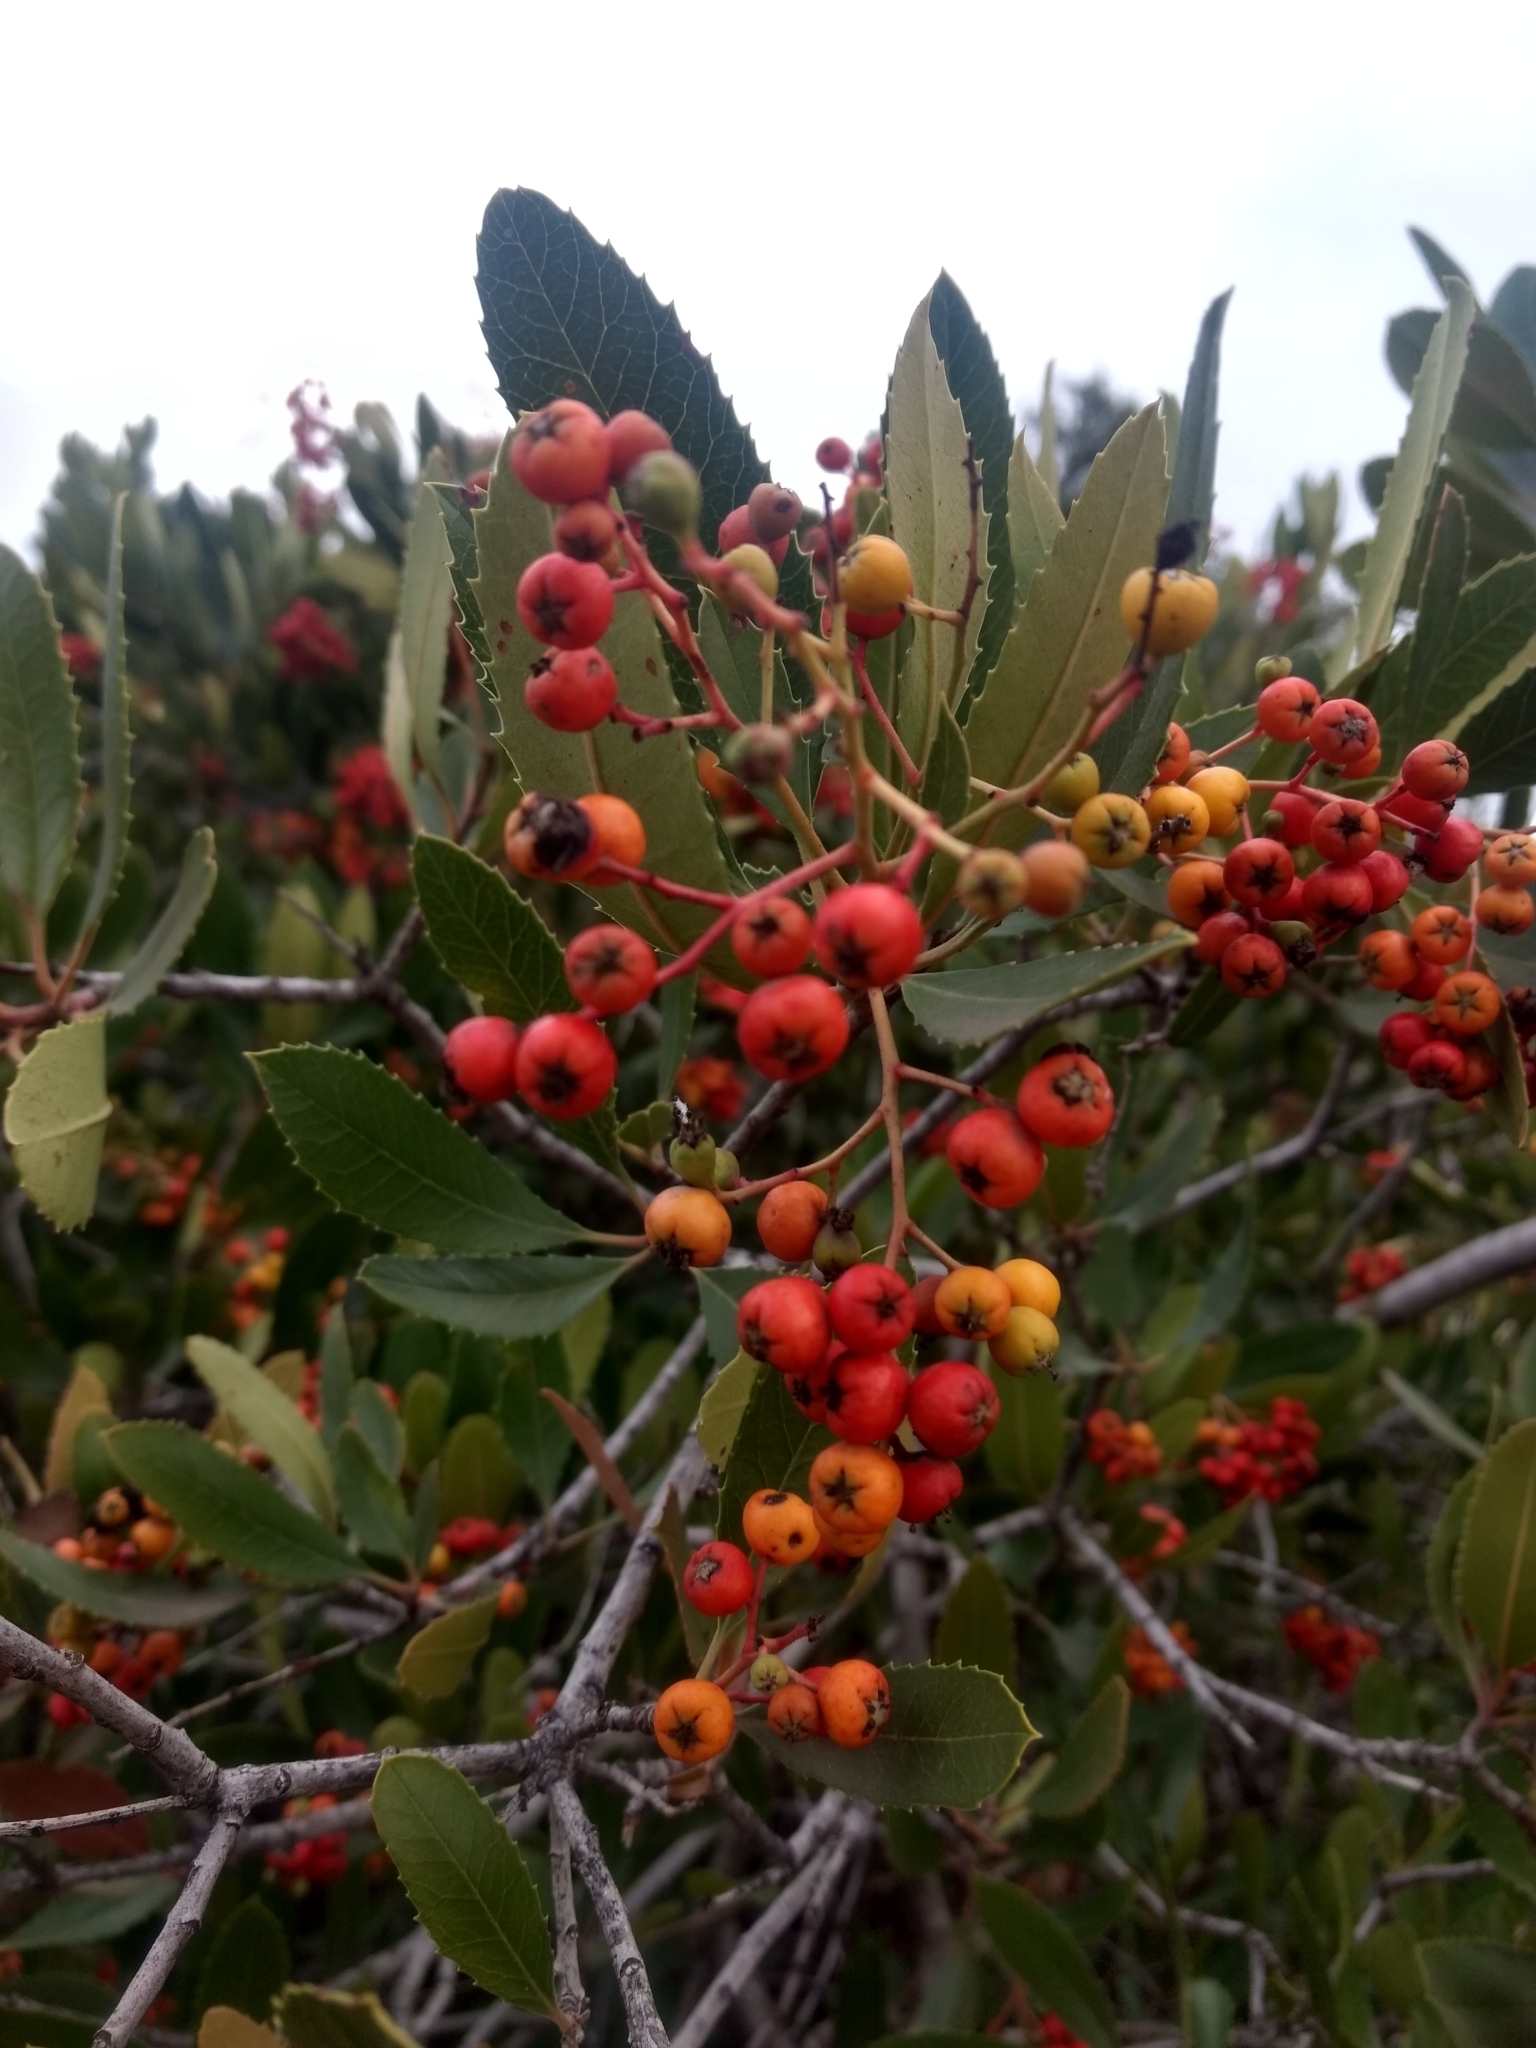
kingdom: Plantae
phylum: Tracheophyta
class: Magnoliopsida
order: Rosales
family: Rosaceae
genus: Heteromeles
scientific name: Heteromeles arbutifolia
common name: California-holly
